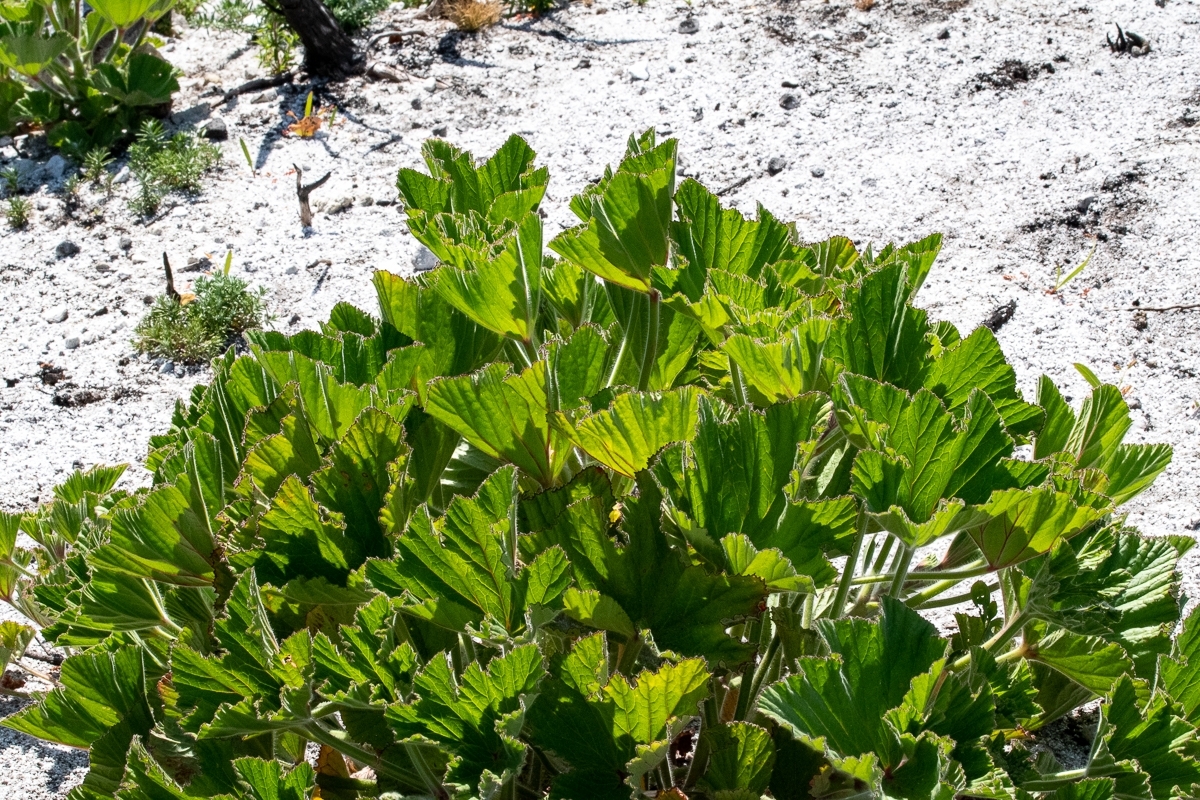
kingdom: Plantae
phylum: Tracheophyta
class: Magnoliopsida
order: Geraniales
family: Geraniaceae
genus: Pelargonium
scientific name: Pelargonium cucullatum
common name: Tree pelargonium
